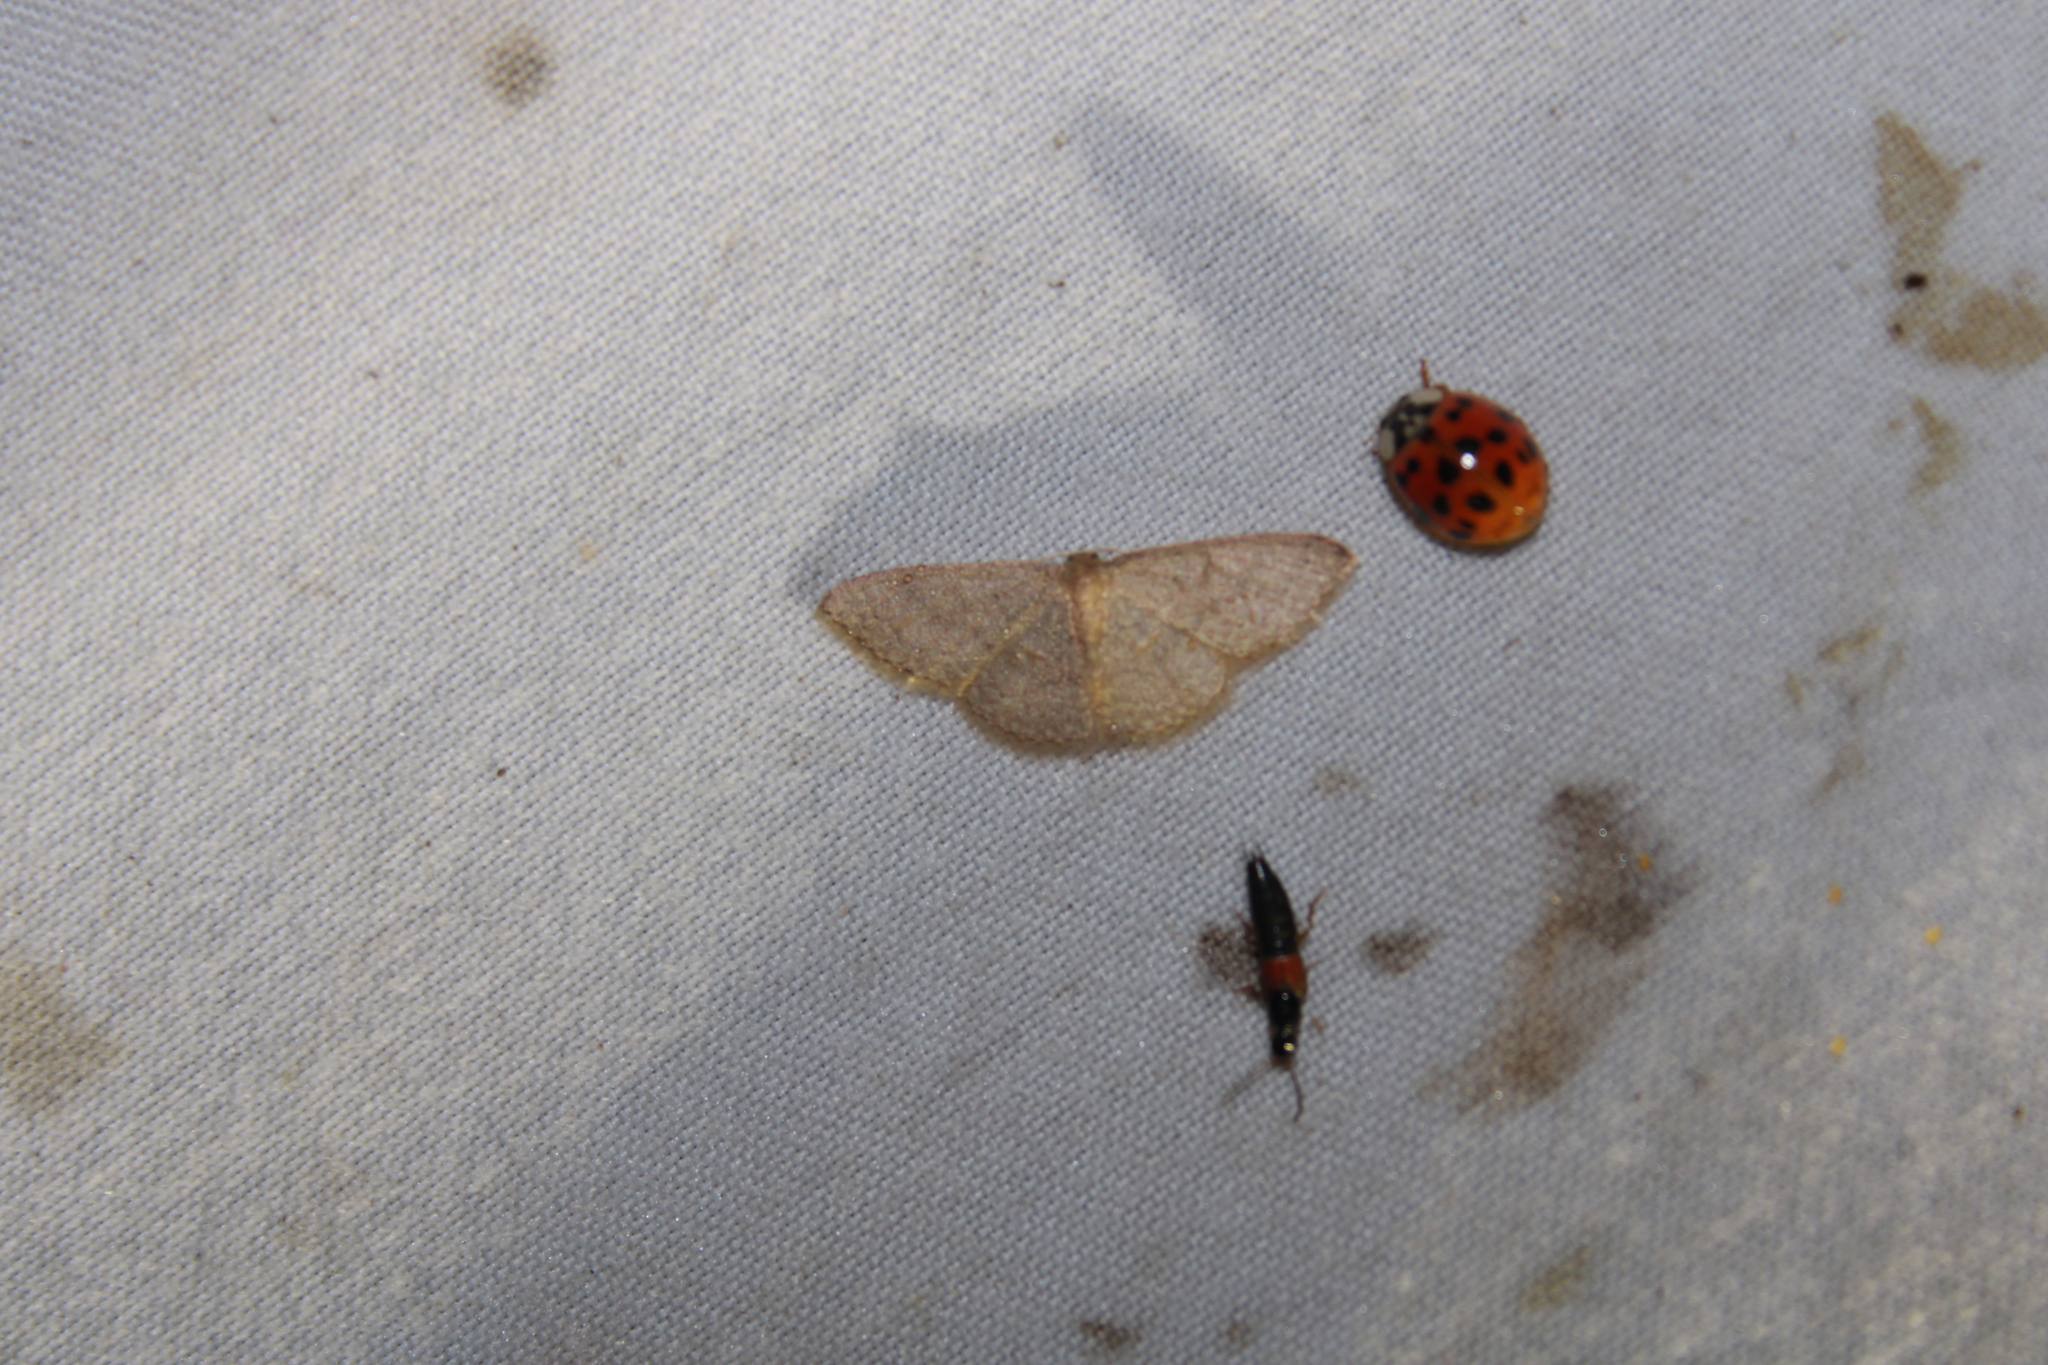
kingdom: Animalia
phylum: Arthropoda
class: Insecta
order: Lepidoptera
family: Geometridae
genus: Pleuroprucha
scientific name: Pleuroprucha insulsaria
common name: Common tan wave
